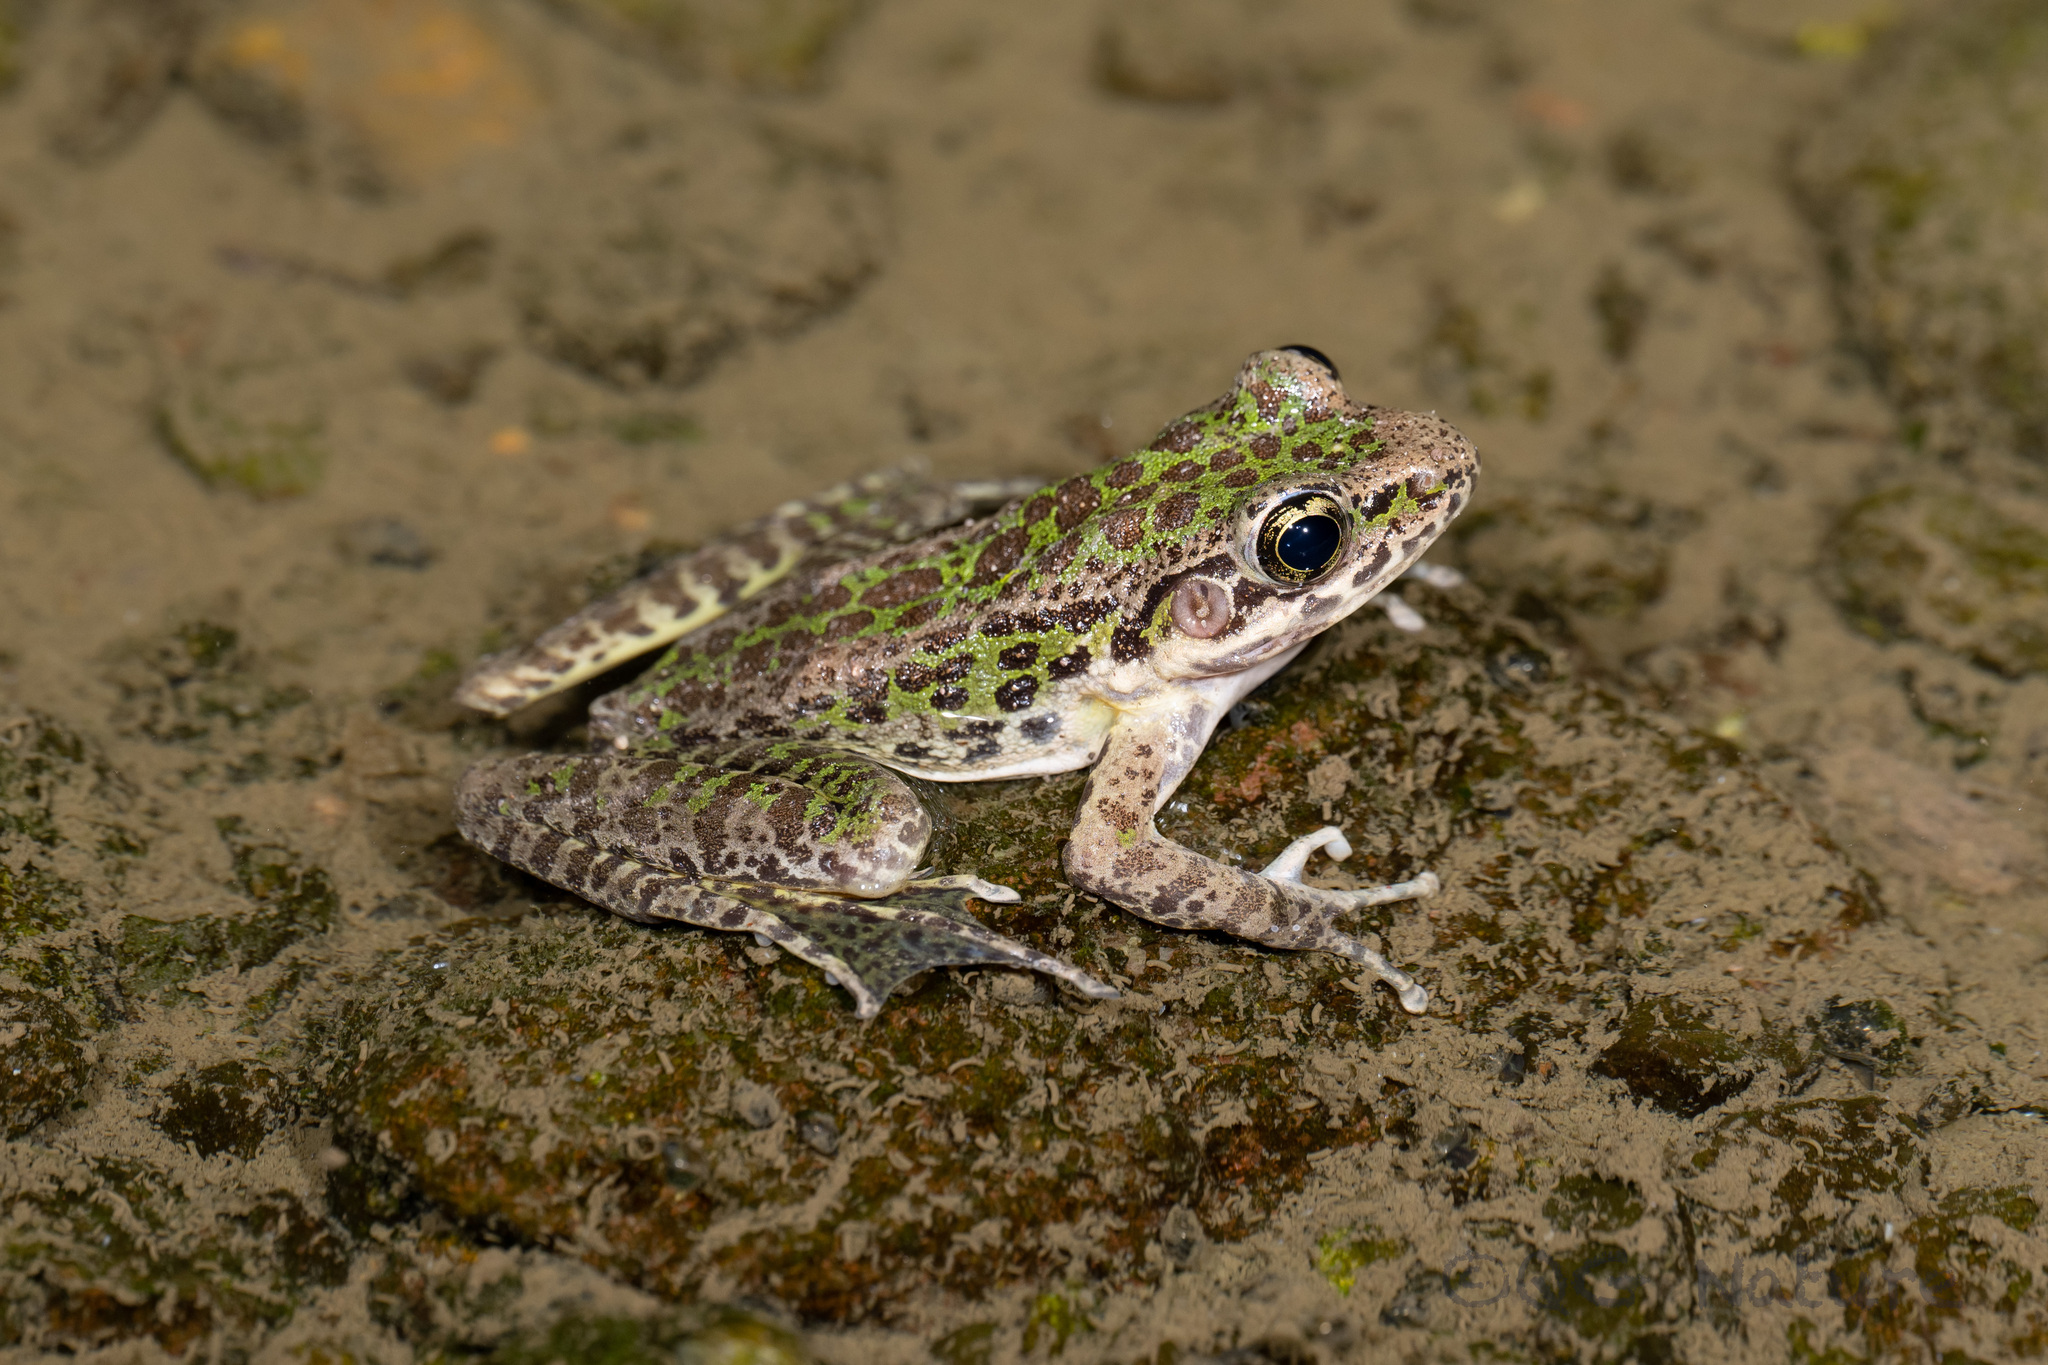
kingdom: Animalia
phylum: Chordata
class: Amphibia
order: Anura
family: Ranidae
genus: Odorrana
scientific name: Odorrana tianmuii
